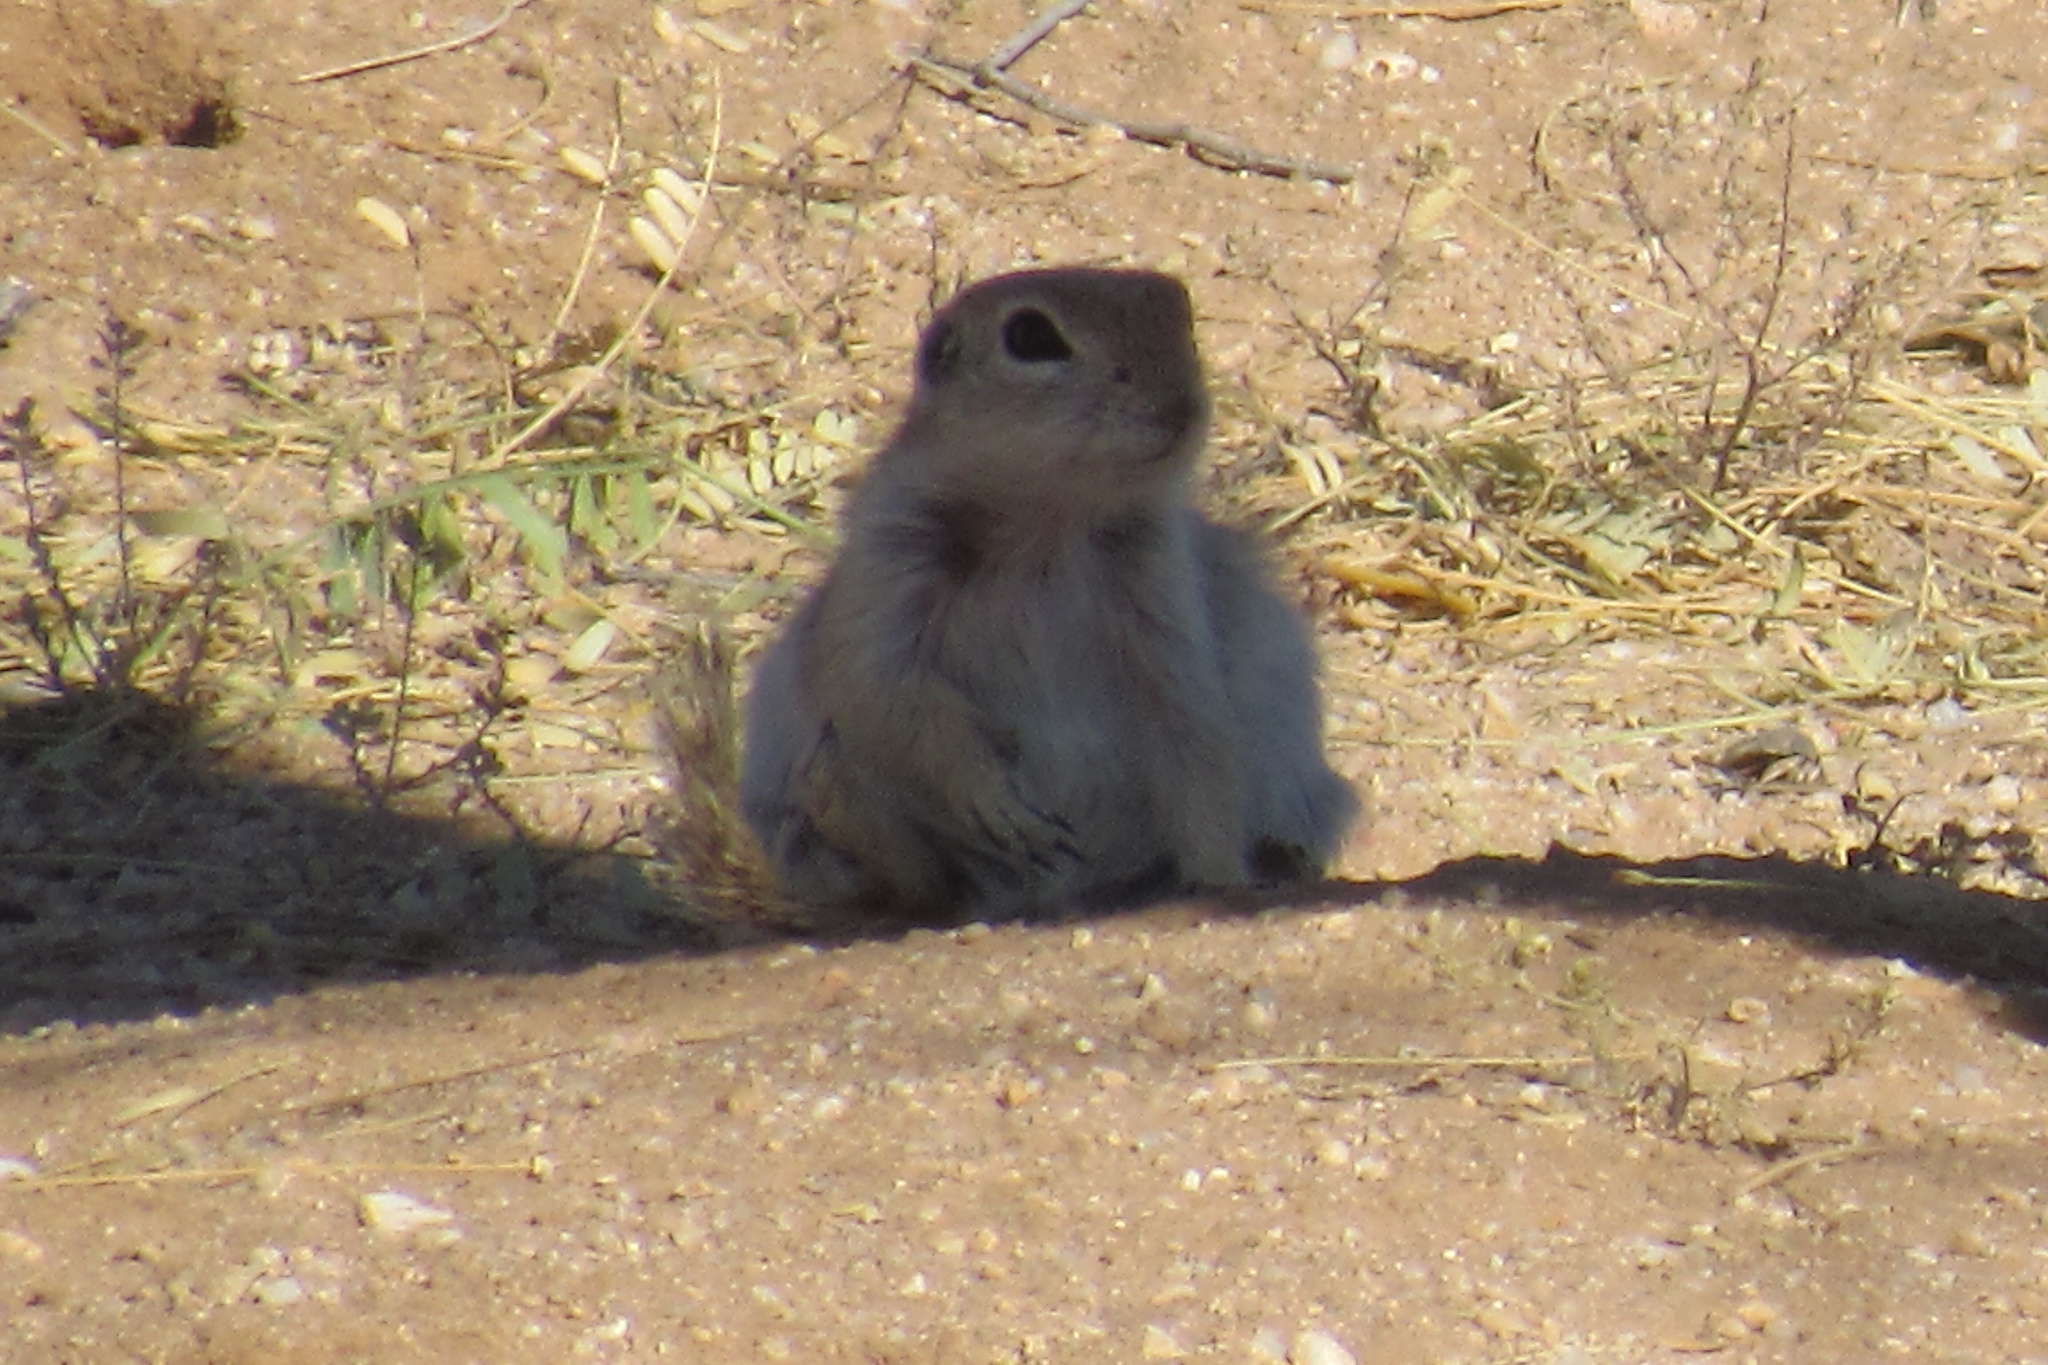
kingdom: Animalia
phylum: Chordata
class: Mammalia
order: Rodentia
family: Sciuridae
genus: Xerospermophilus
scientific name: Xerospermophilus tereticaudus
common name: Round-tailed ground squirrel
